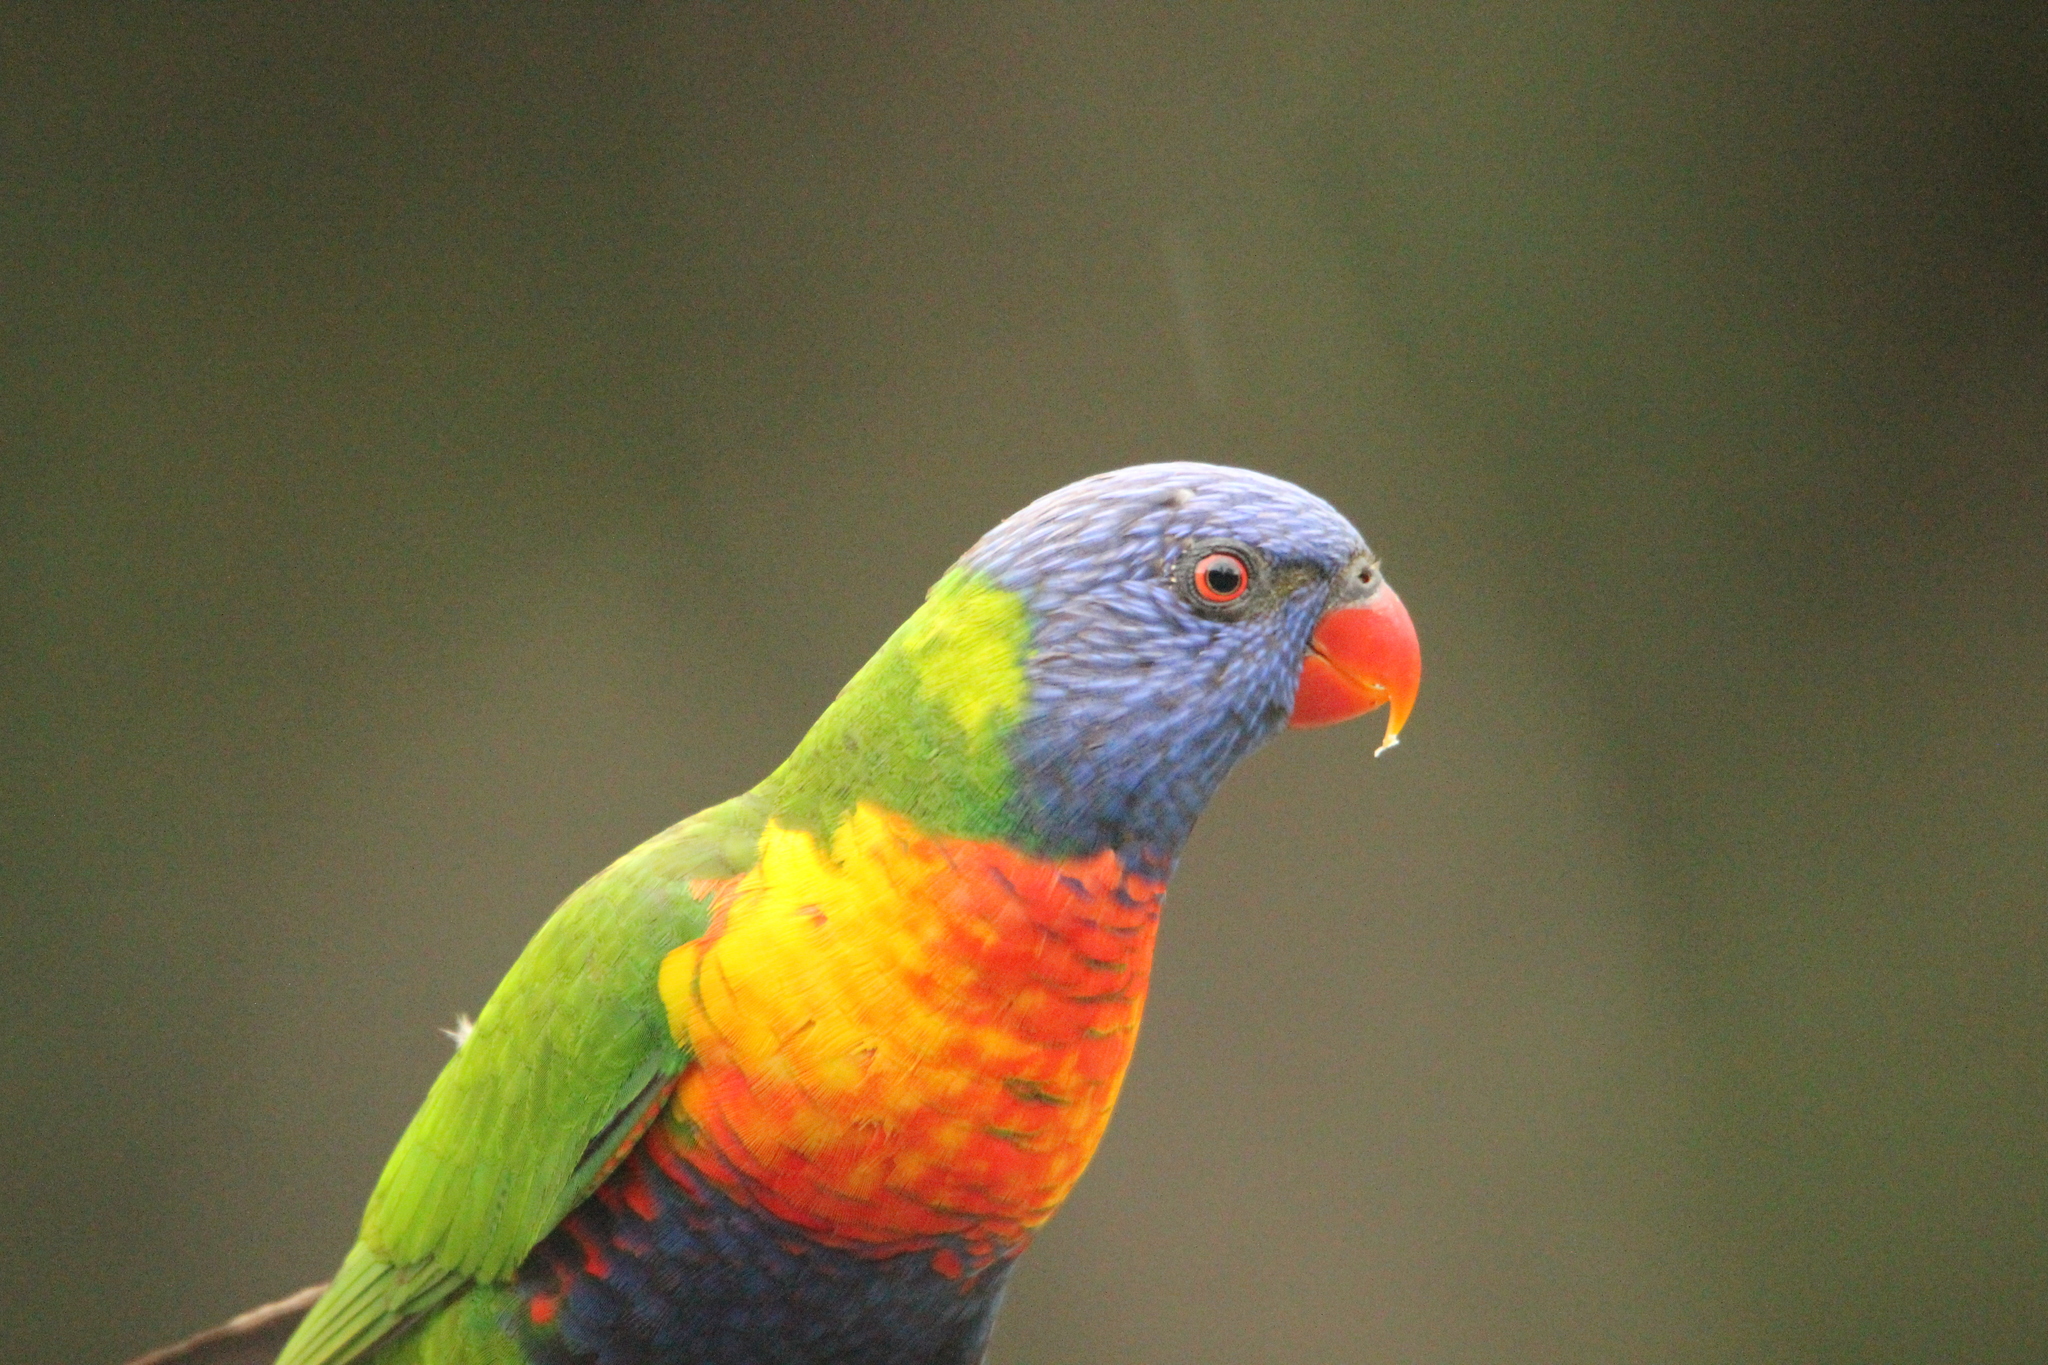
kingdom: Animalia
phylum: Chordata
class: Aves
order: Psittaciformes
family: Psittacidae
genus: Trichoglossus
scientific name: Trichoglossus haematodus
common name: Coconut lorikeet
